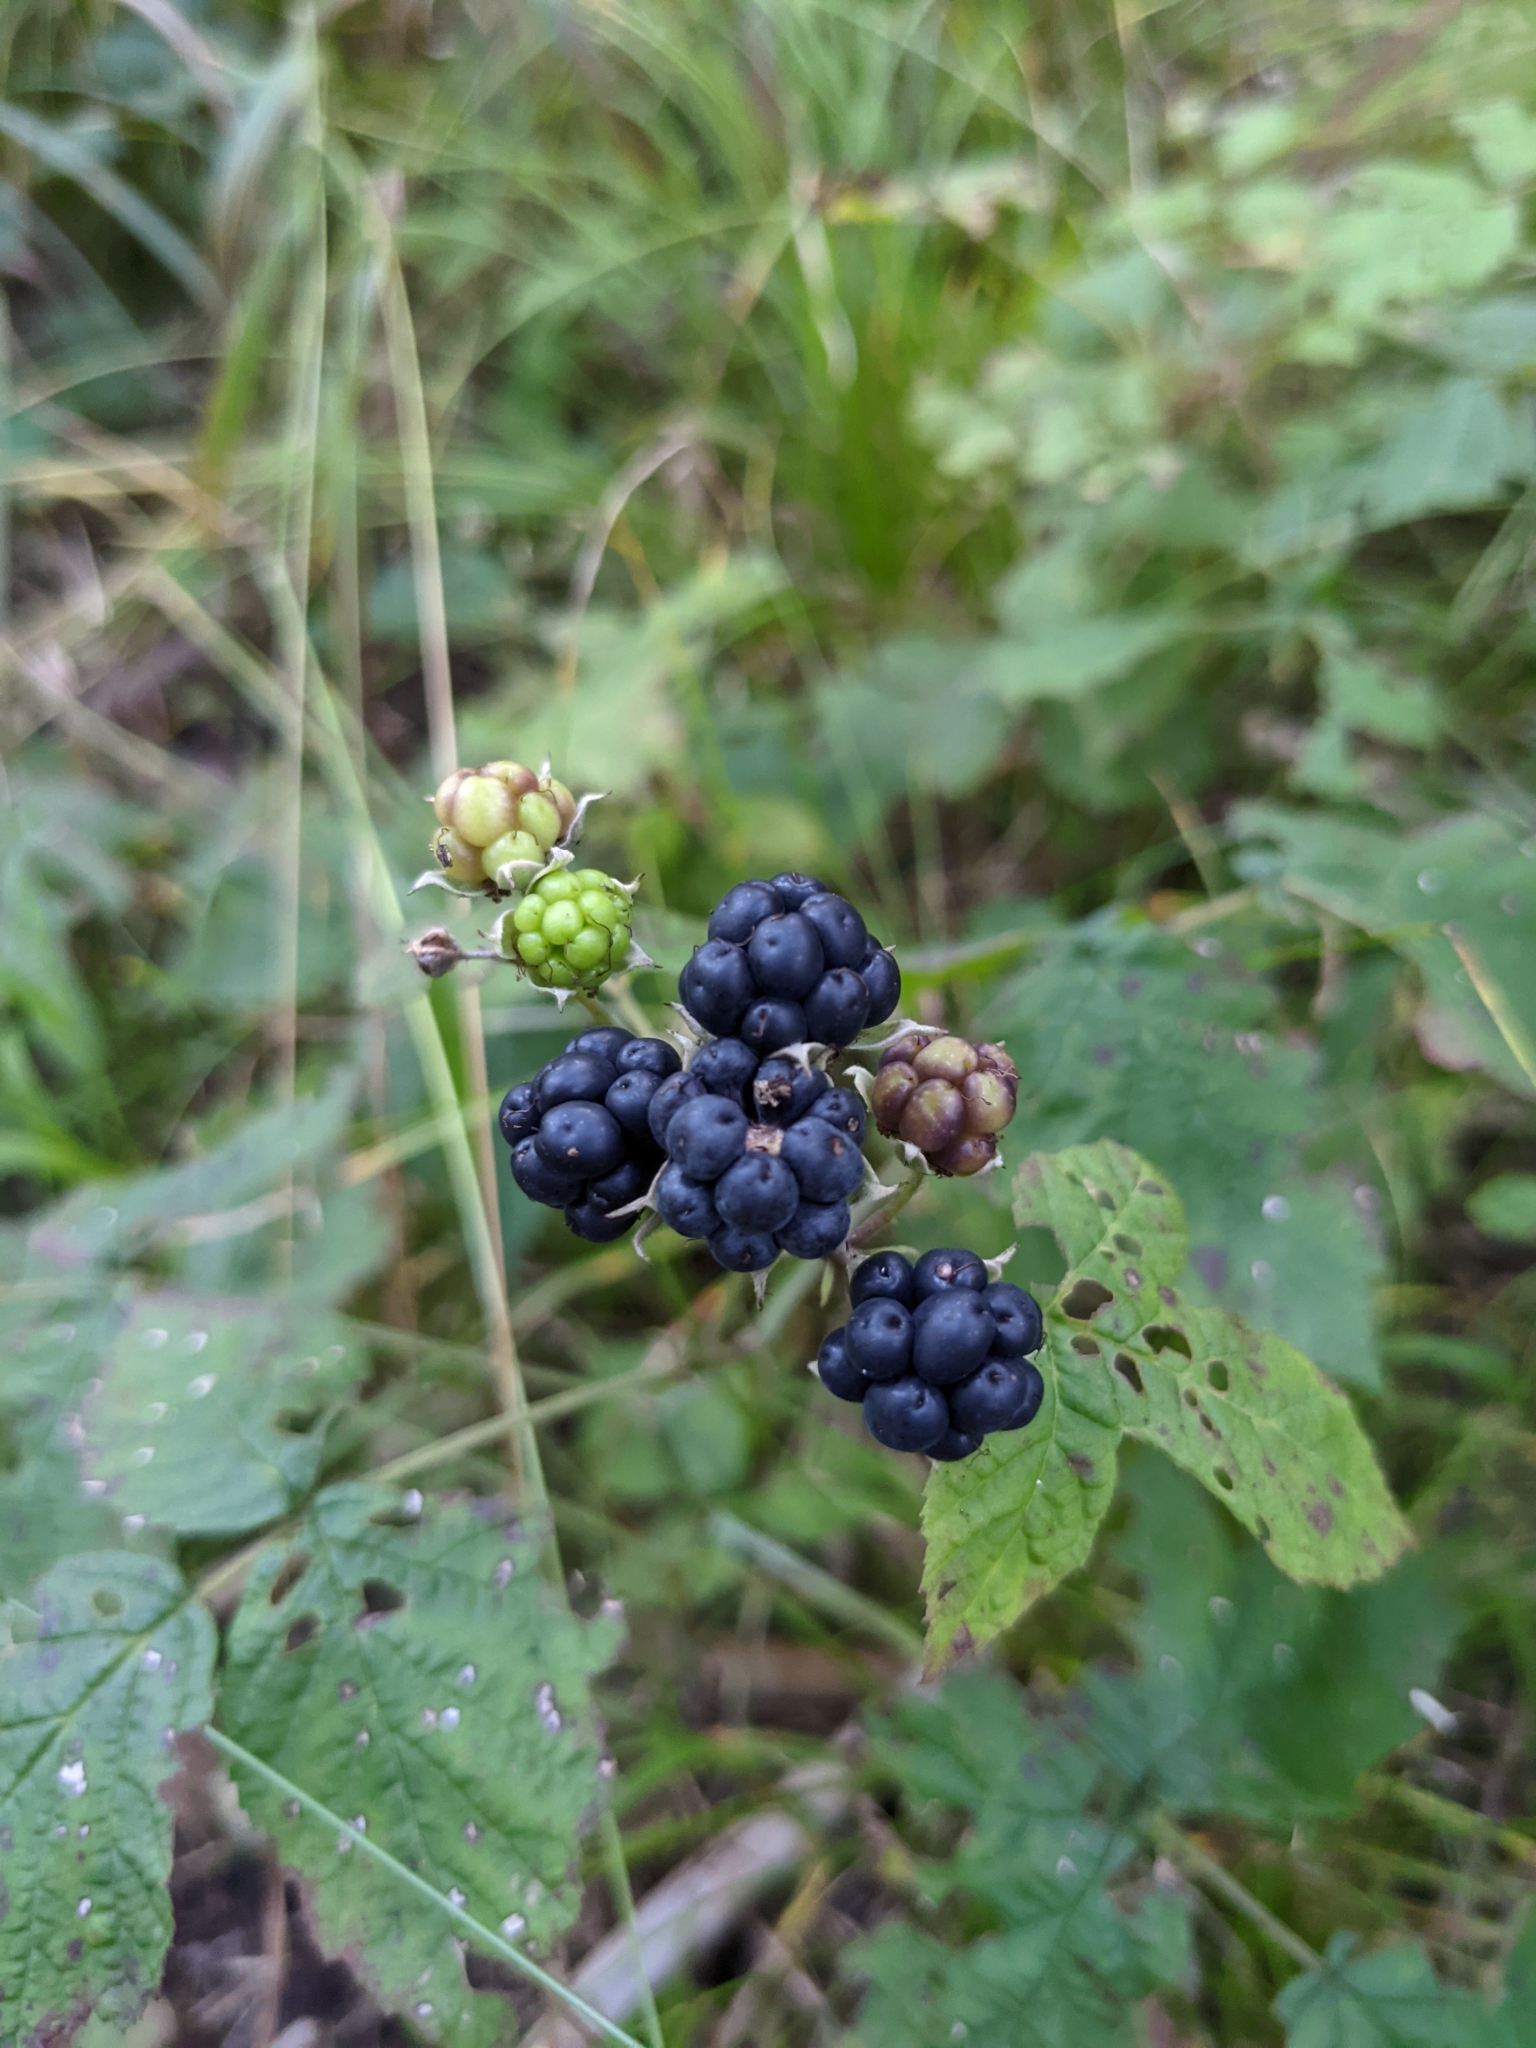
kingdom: Plantae
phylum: Tracheophyta
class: Magnoliopsida
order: Rosales
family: Rosaceae
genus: Rubus
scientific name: Rubus caesius
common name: Dewberry
